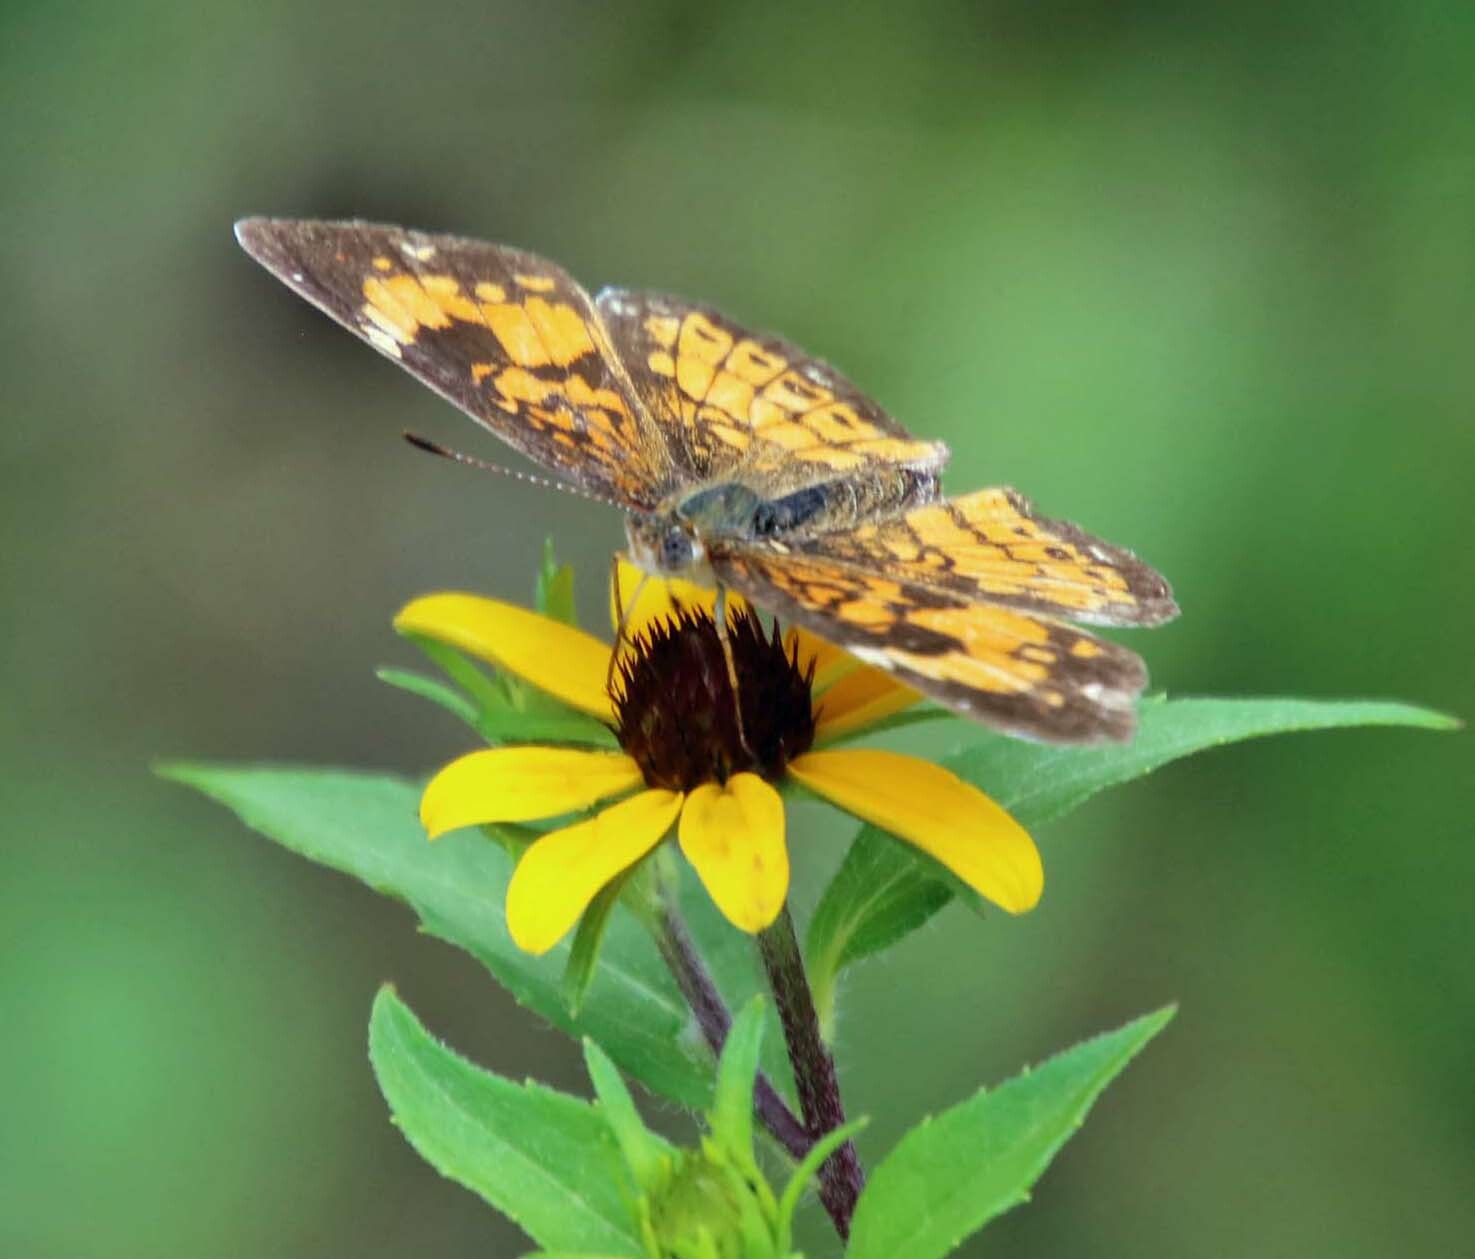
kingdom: Animalia
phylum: Arthropoda
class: Insecta
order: Lepidoptera
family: Nymphalidae
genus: Chlosyne
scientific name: Chlosyne nycteis
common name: Silvery checkerspot
